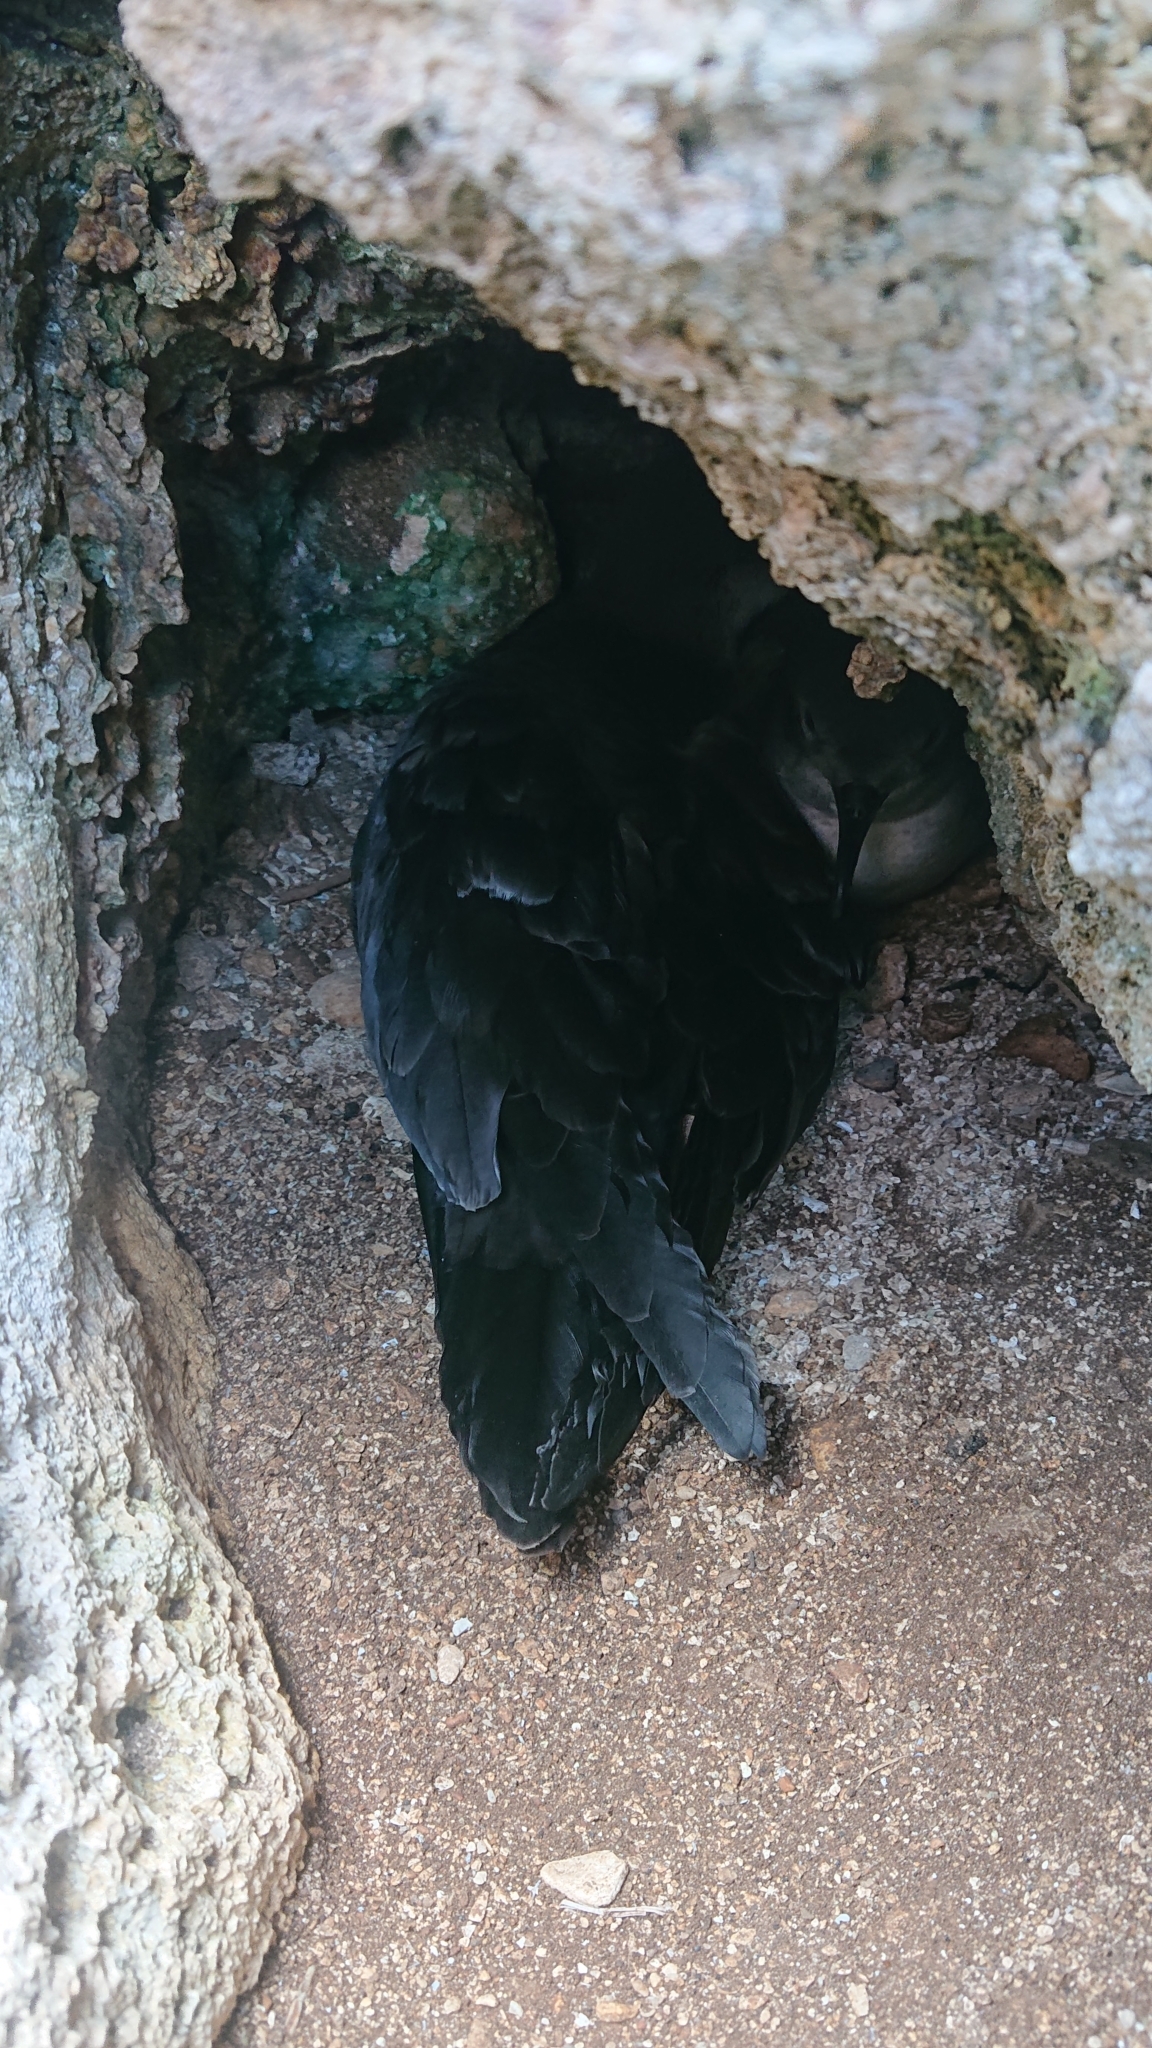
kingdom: Animalia
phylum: Chordata
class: Aves
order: Procellariiformes
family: Procellariidae
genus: Puffinus
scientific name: Puffinus pacificus
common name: Wedge-tailed shearwater
